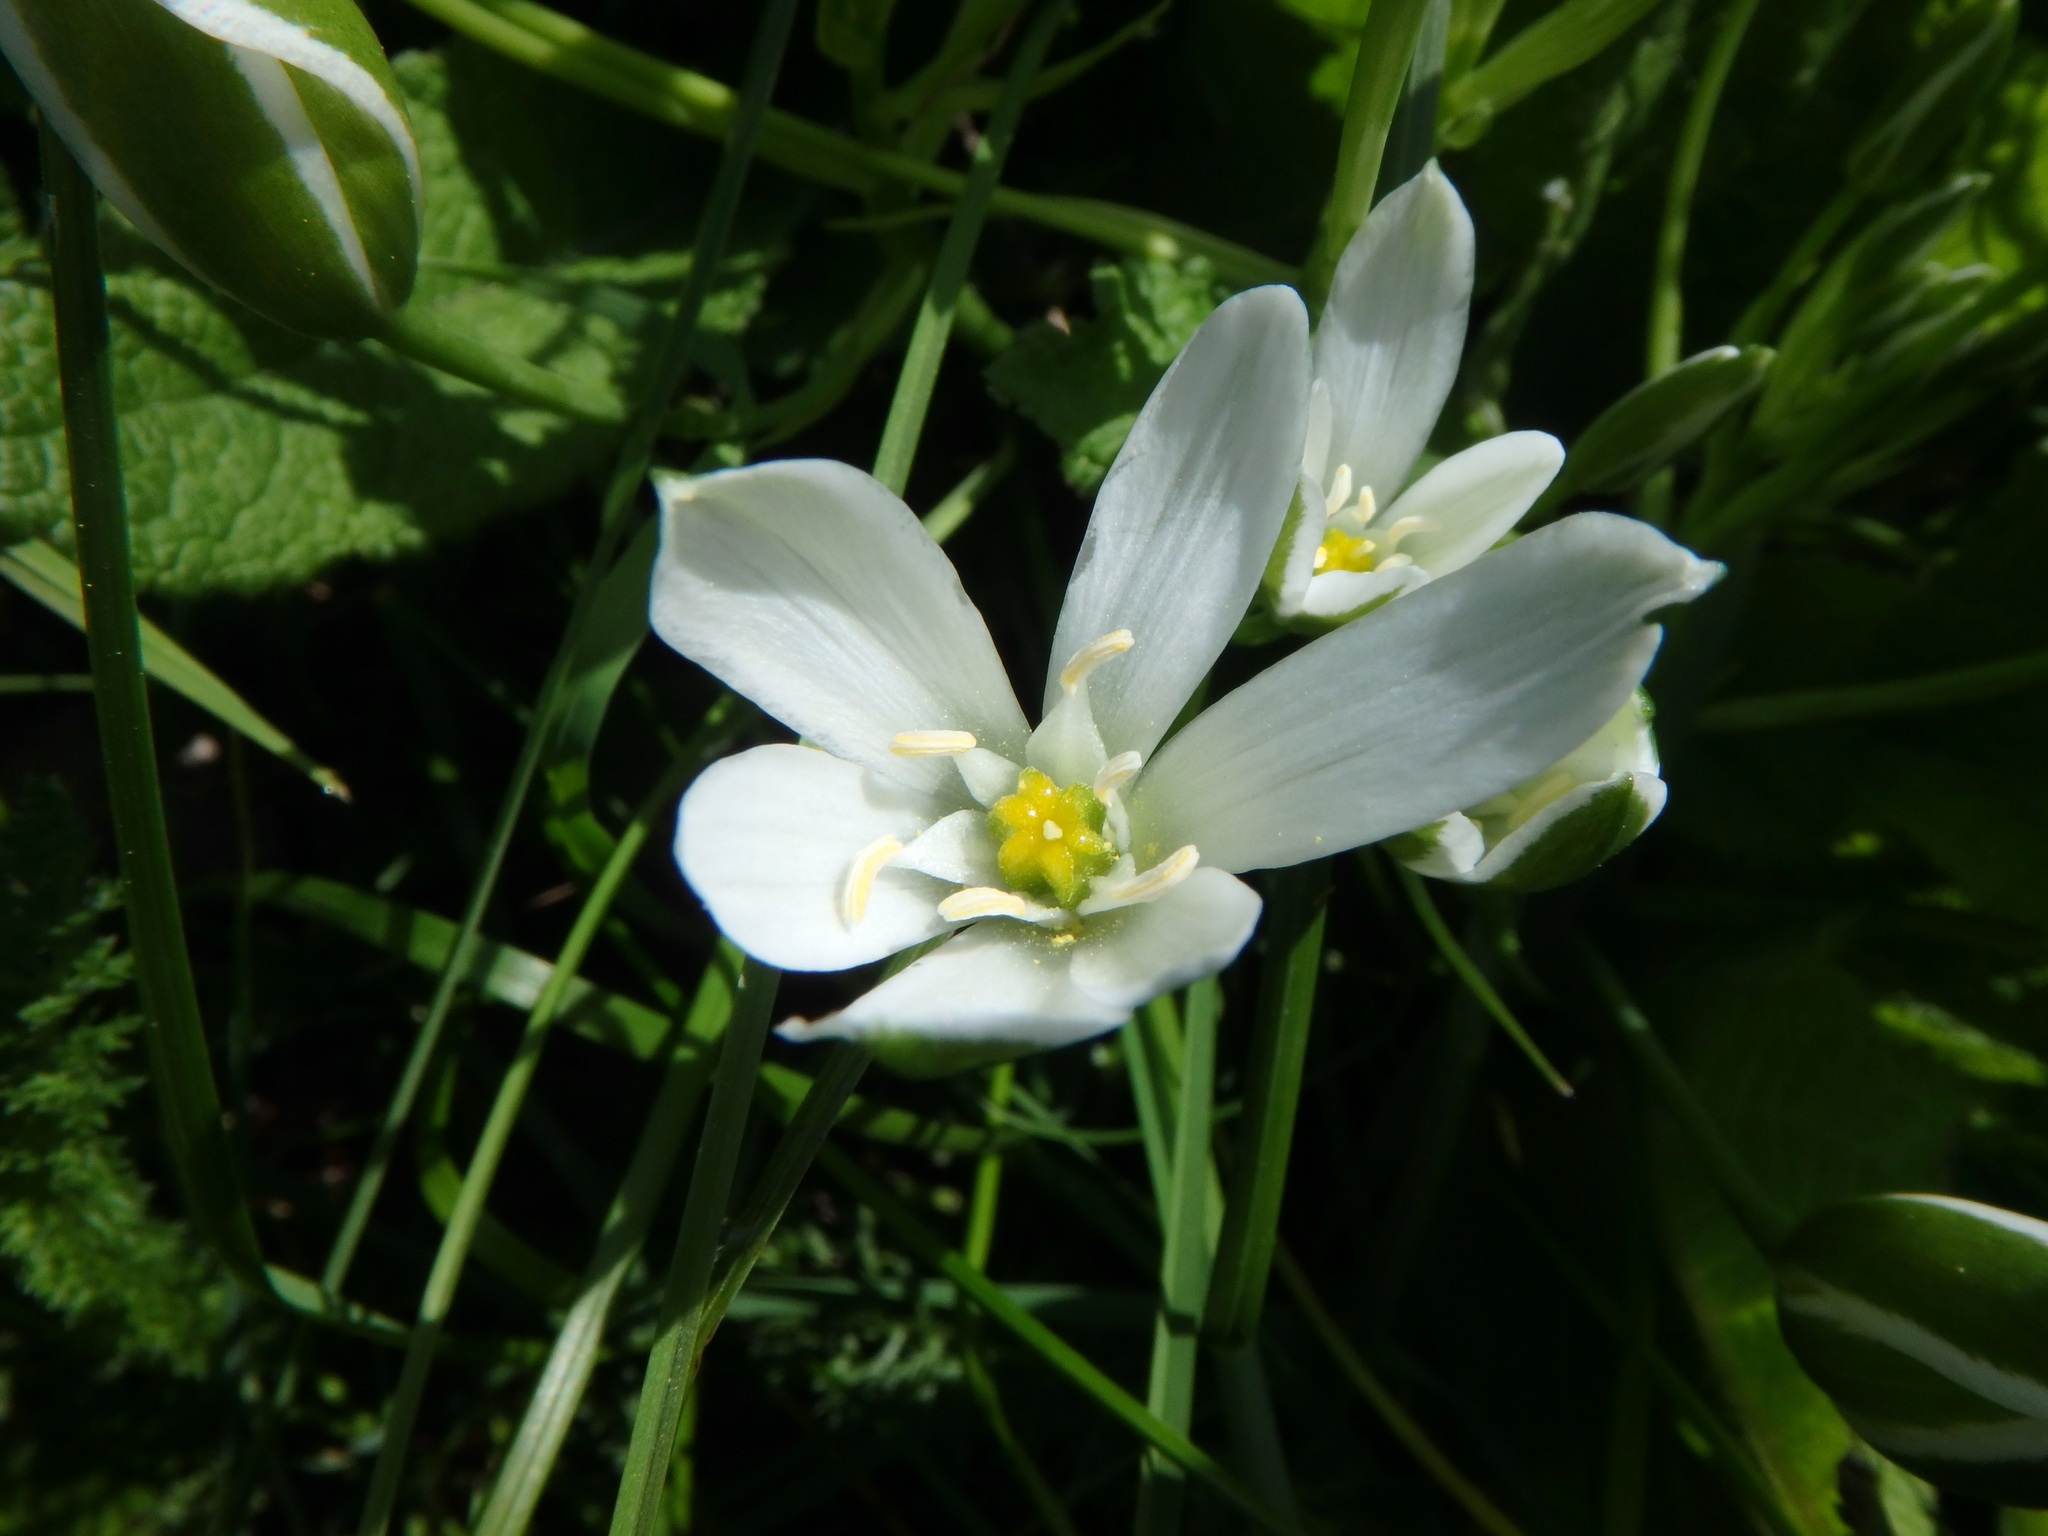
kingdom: Plantae
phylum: Tracheophyta
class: Liliopsida
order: Asparagales
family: Asparagaceae
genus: Ornithogalum
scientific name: Ornithogalum umbellatum
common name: Garden star-of-bethlehem
